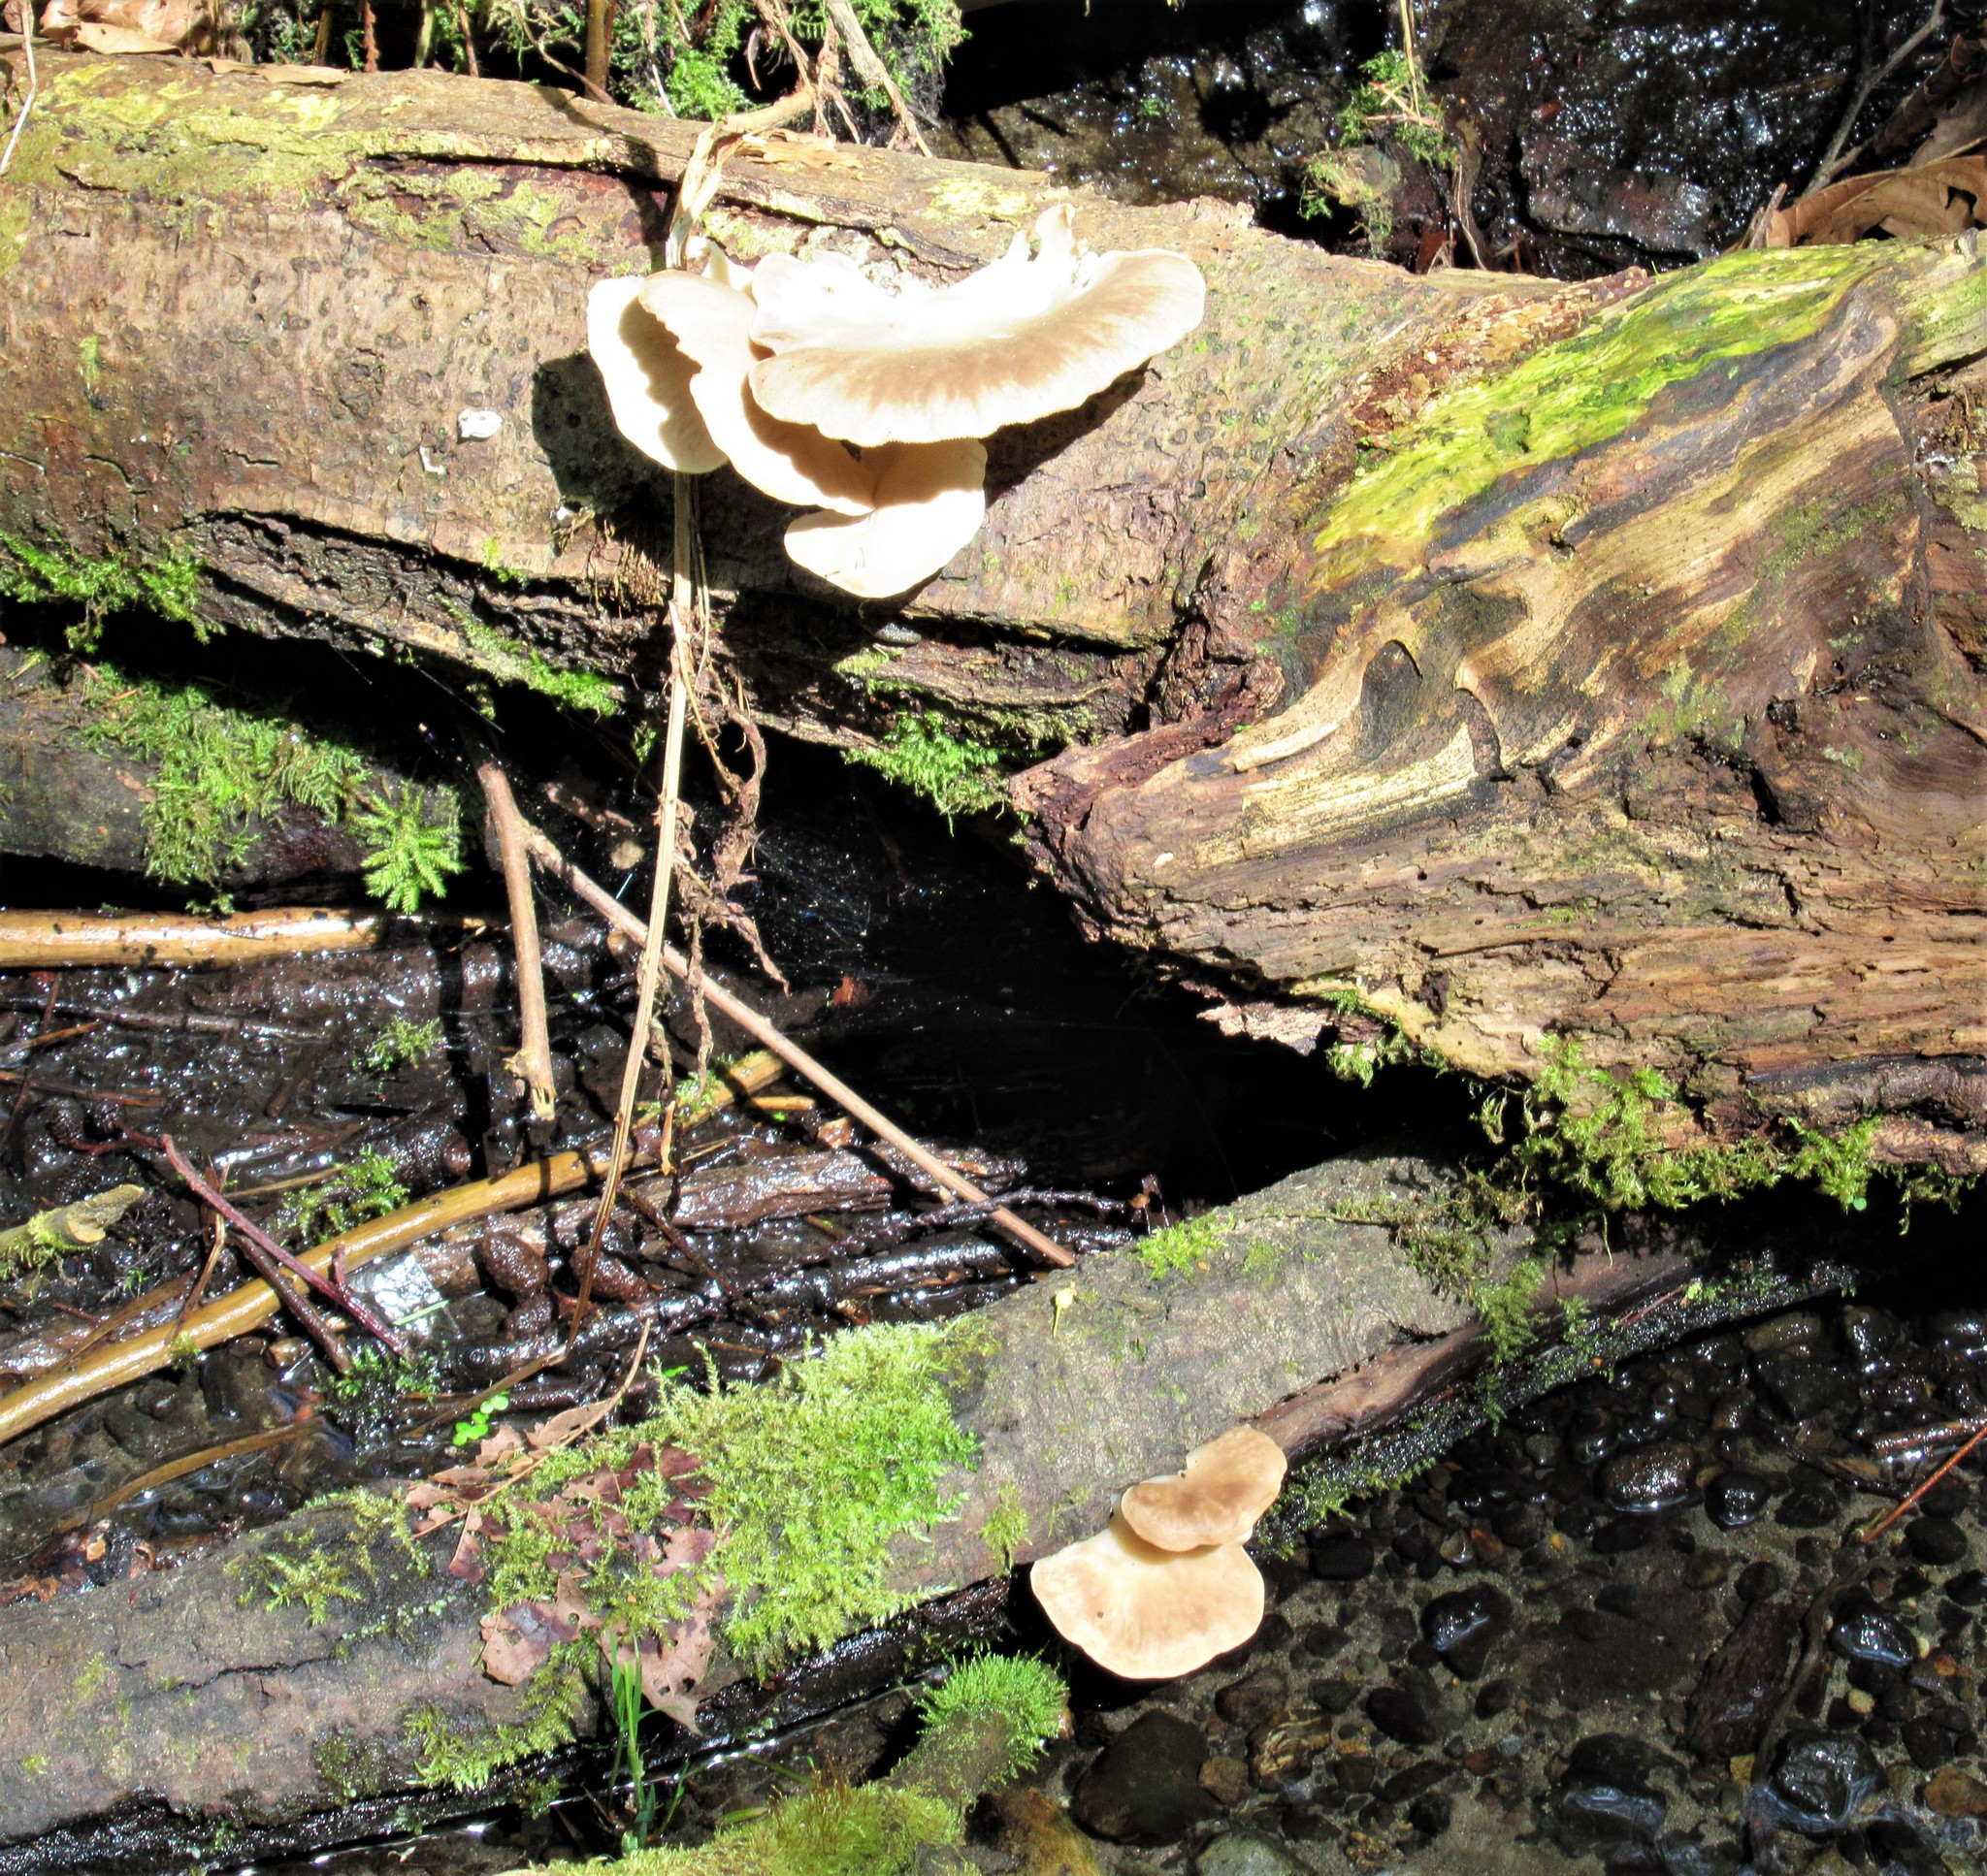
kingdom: Fungi
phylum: Basidiomycota
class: Agaricomycetes
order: Agaricales
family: Pleurotaceae
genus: Pleurotus
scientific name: Pleurotus ostreatus
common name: Oyster mushroom
